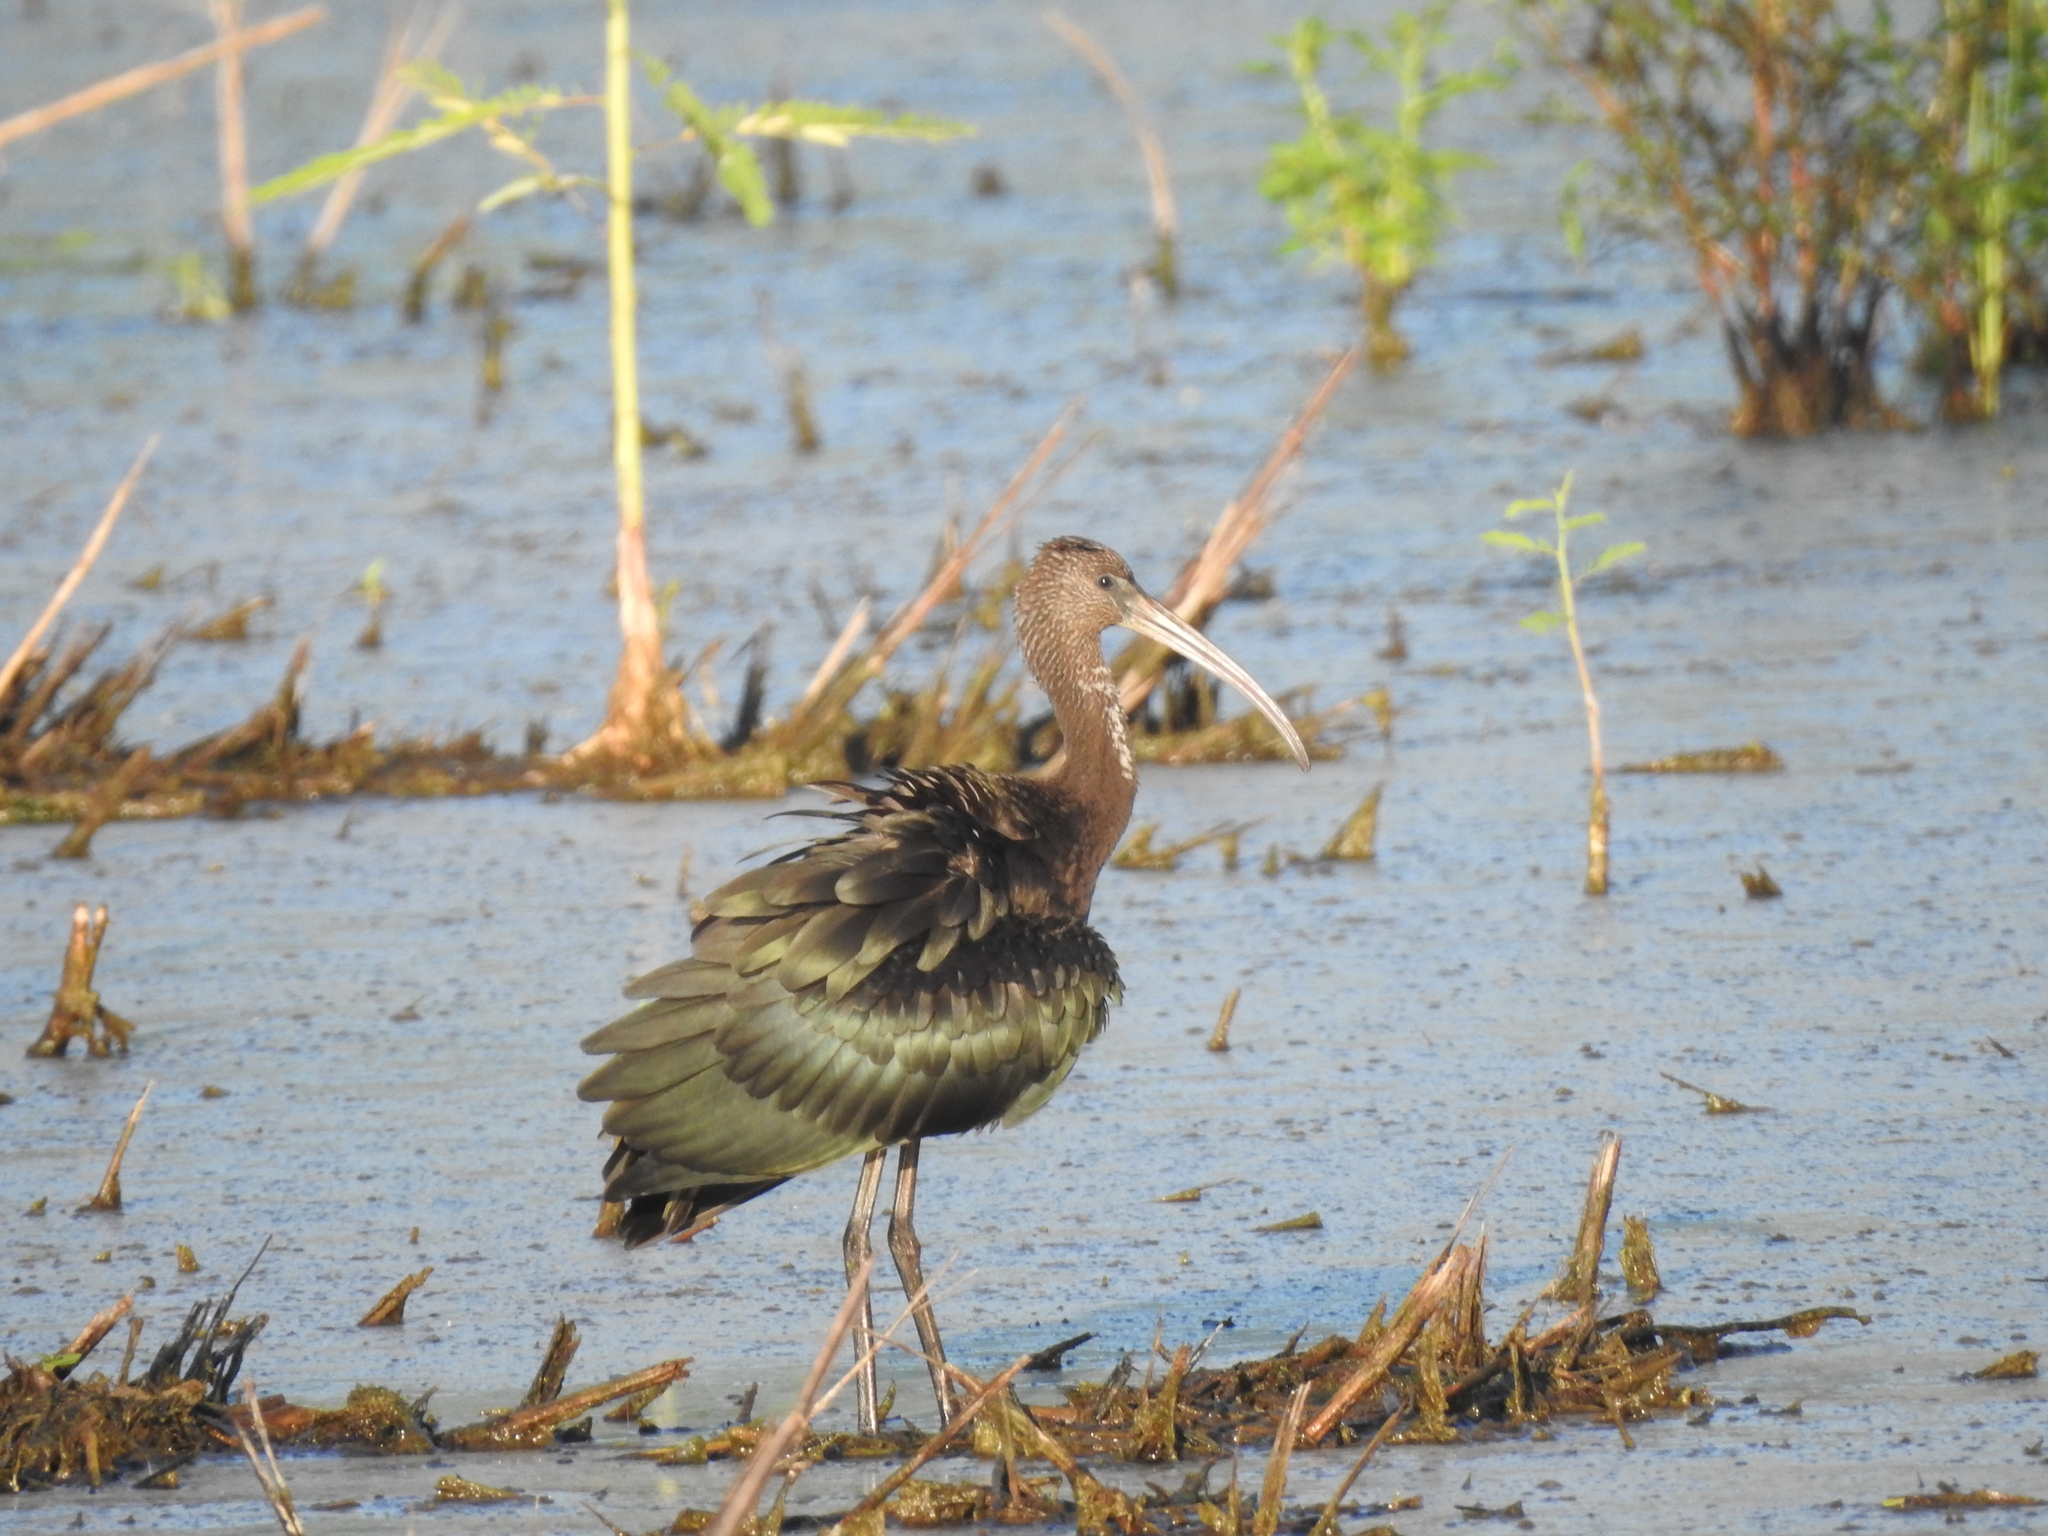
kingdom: Animalia
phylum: Chordata
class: Aves
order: Pelecaniformes
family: Threskiornithidae
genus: Plegadis
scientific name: Plegadis falcinellus
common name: Glossy ibis
